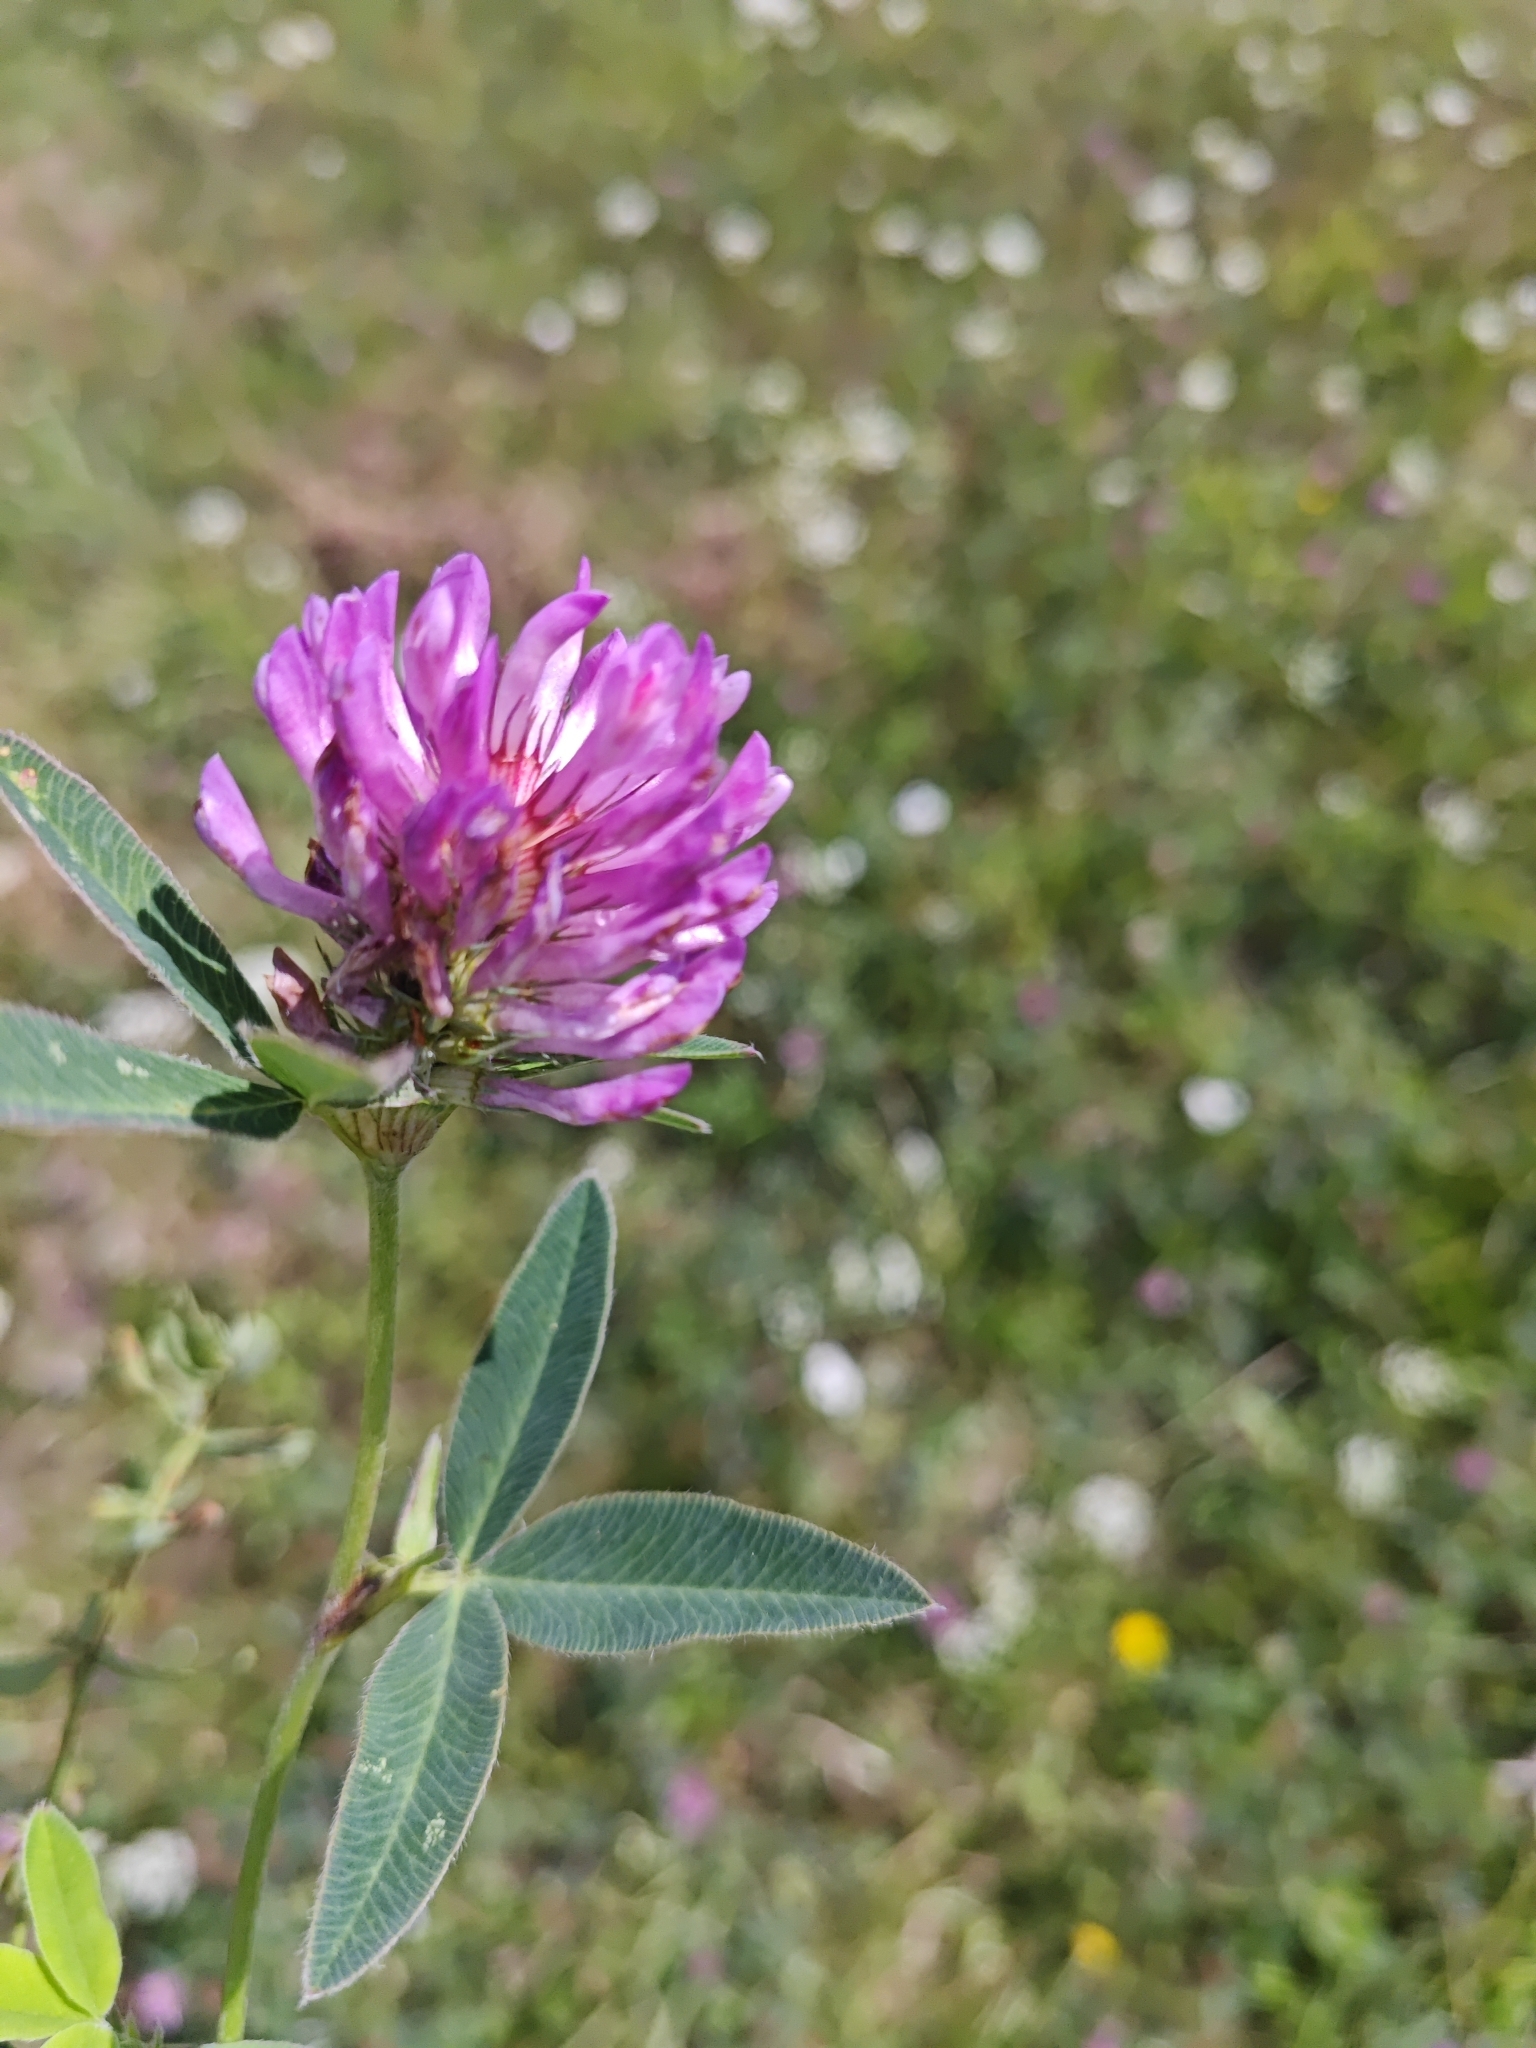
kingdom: Plantae
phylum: Tracheophyta
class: Magnoliopsida
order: Fabales
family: Fabaceae
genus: Trifolium
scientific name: Trifolium medium
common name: Zigzag clover
